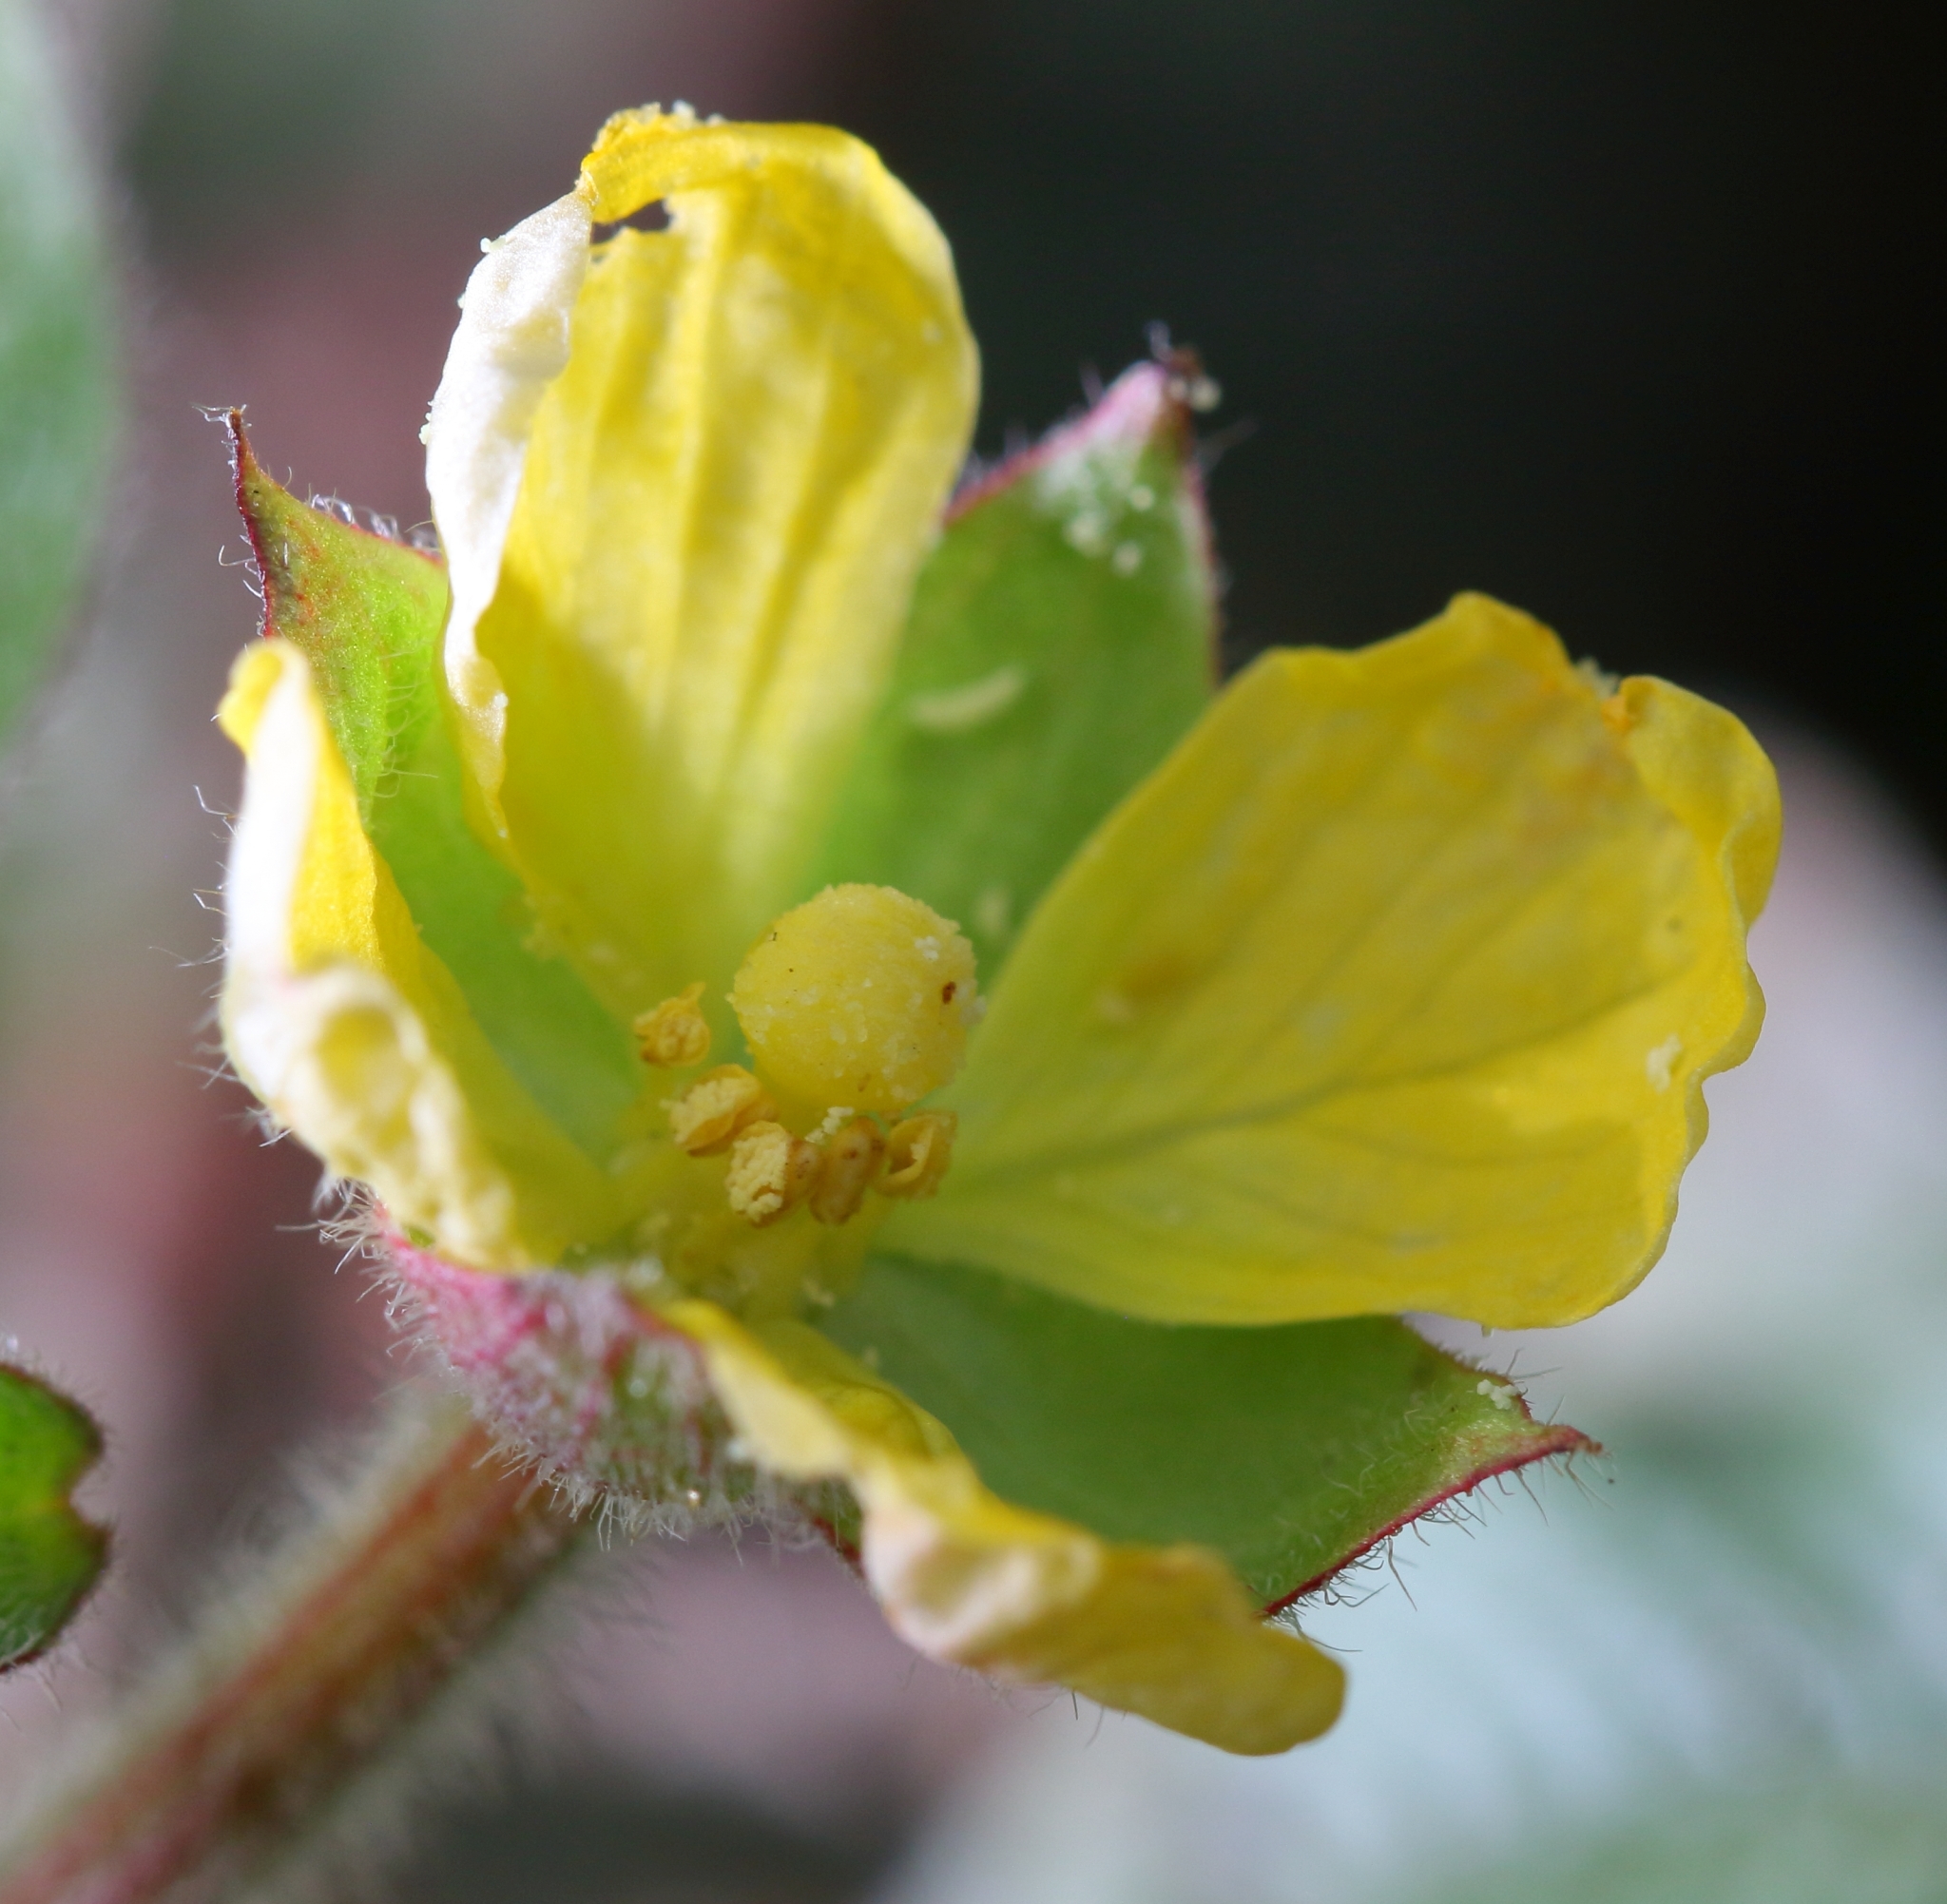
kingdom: Plantae
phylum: Tracheophyta
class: Magnoliopsida
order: Myrtales
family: Onagraceae
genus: Ludwigia
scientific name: Ludwigia octovalvis
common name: Water-primrose
